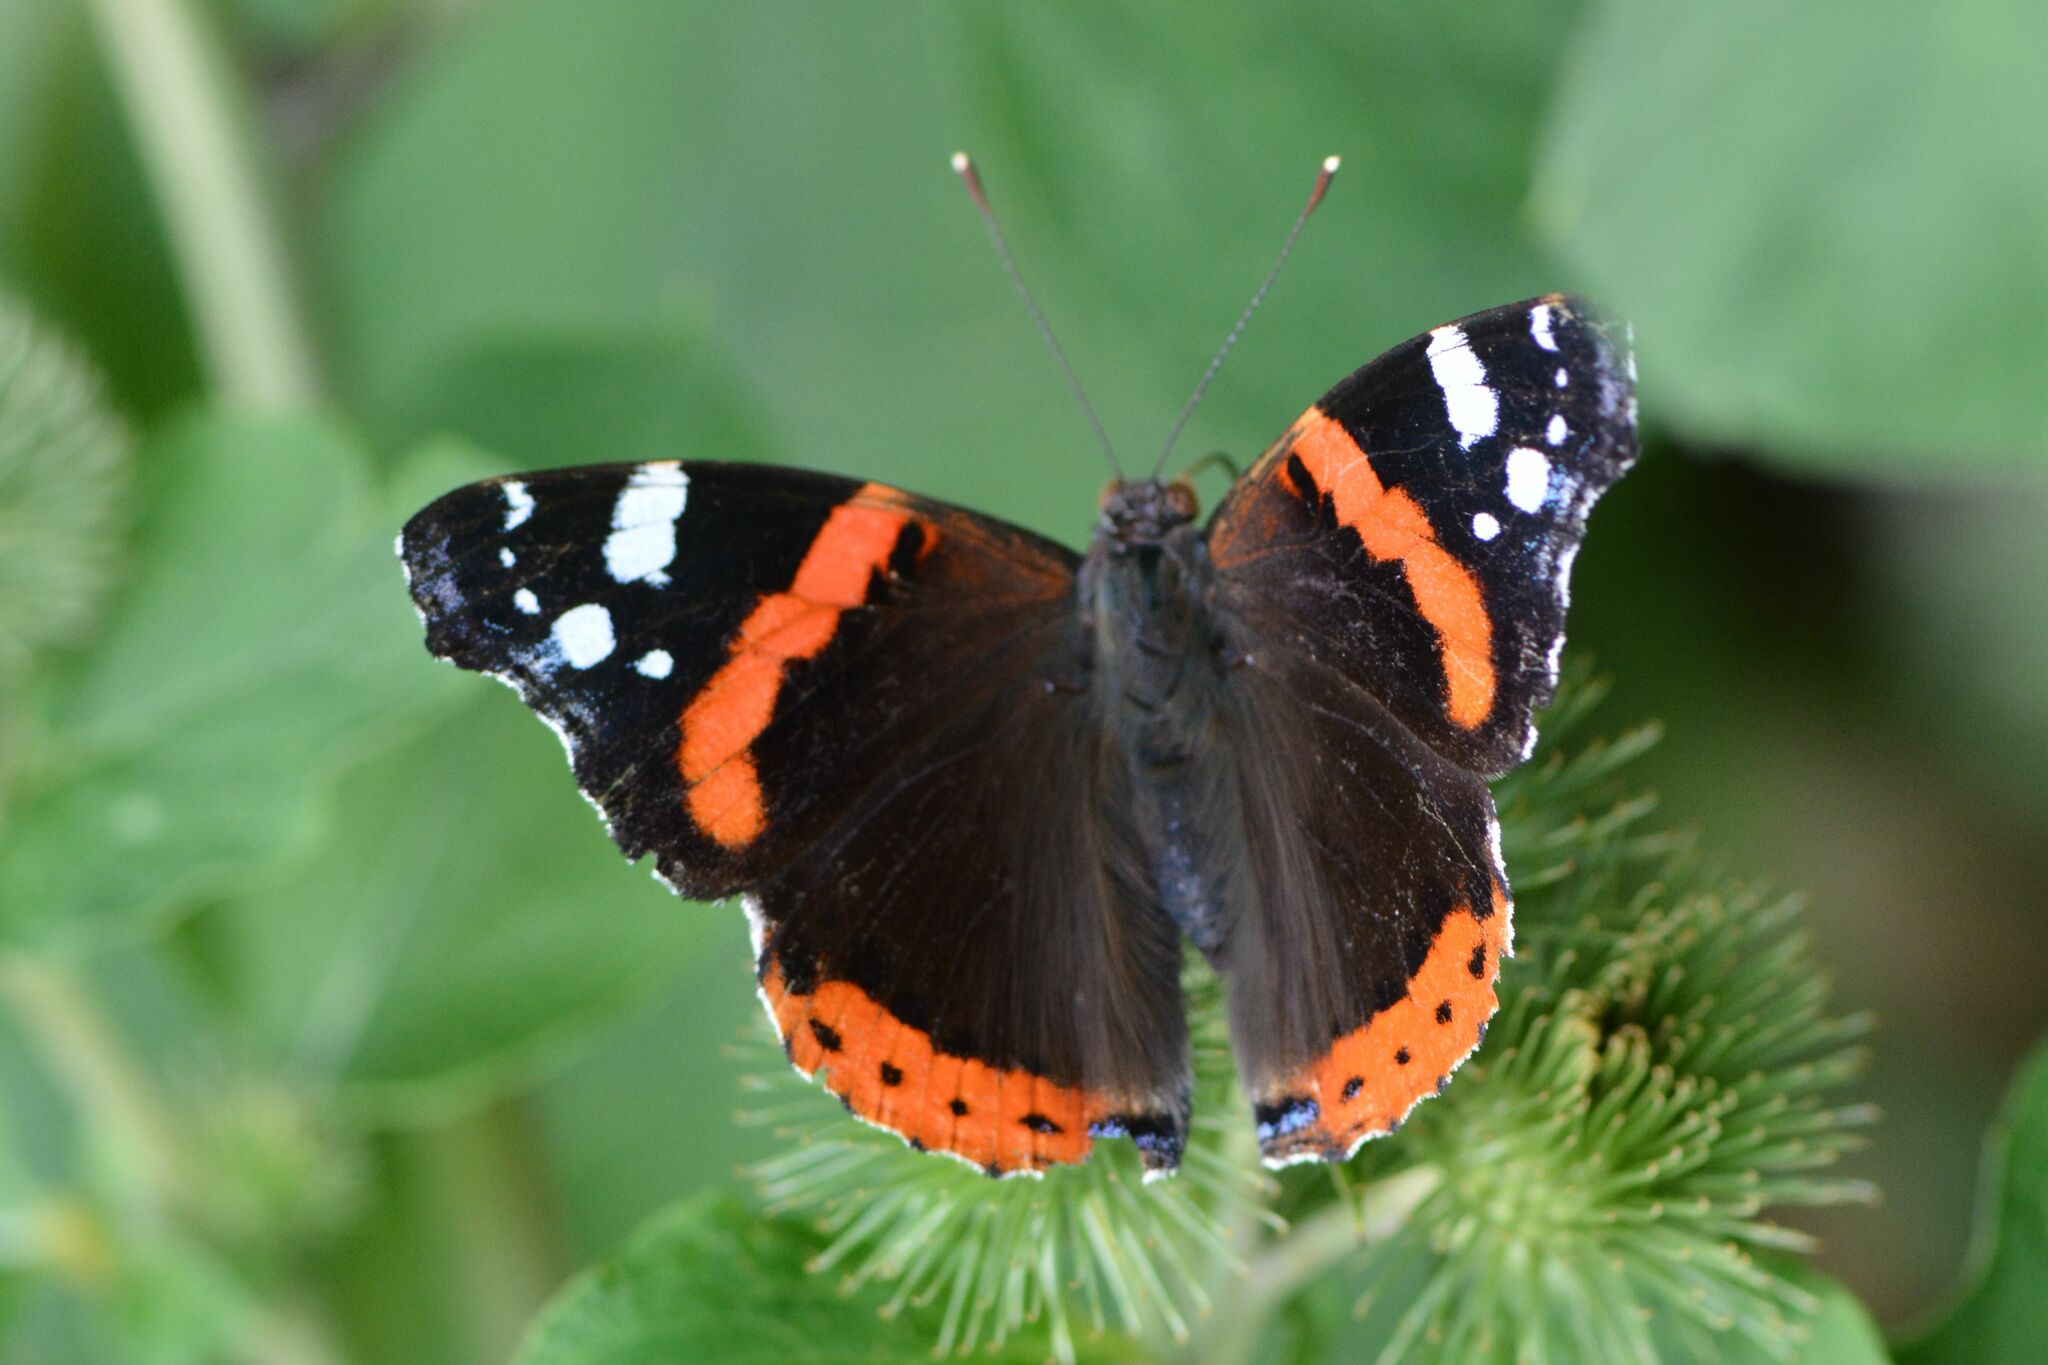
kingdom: Animalia
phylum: Arthropoda
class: Insecta
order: Lepidoptera
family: Nymphalidae
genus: Vanessa
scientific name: Vanessa atalanta
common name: Red admiral
